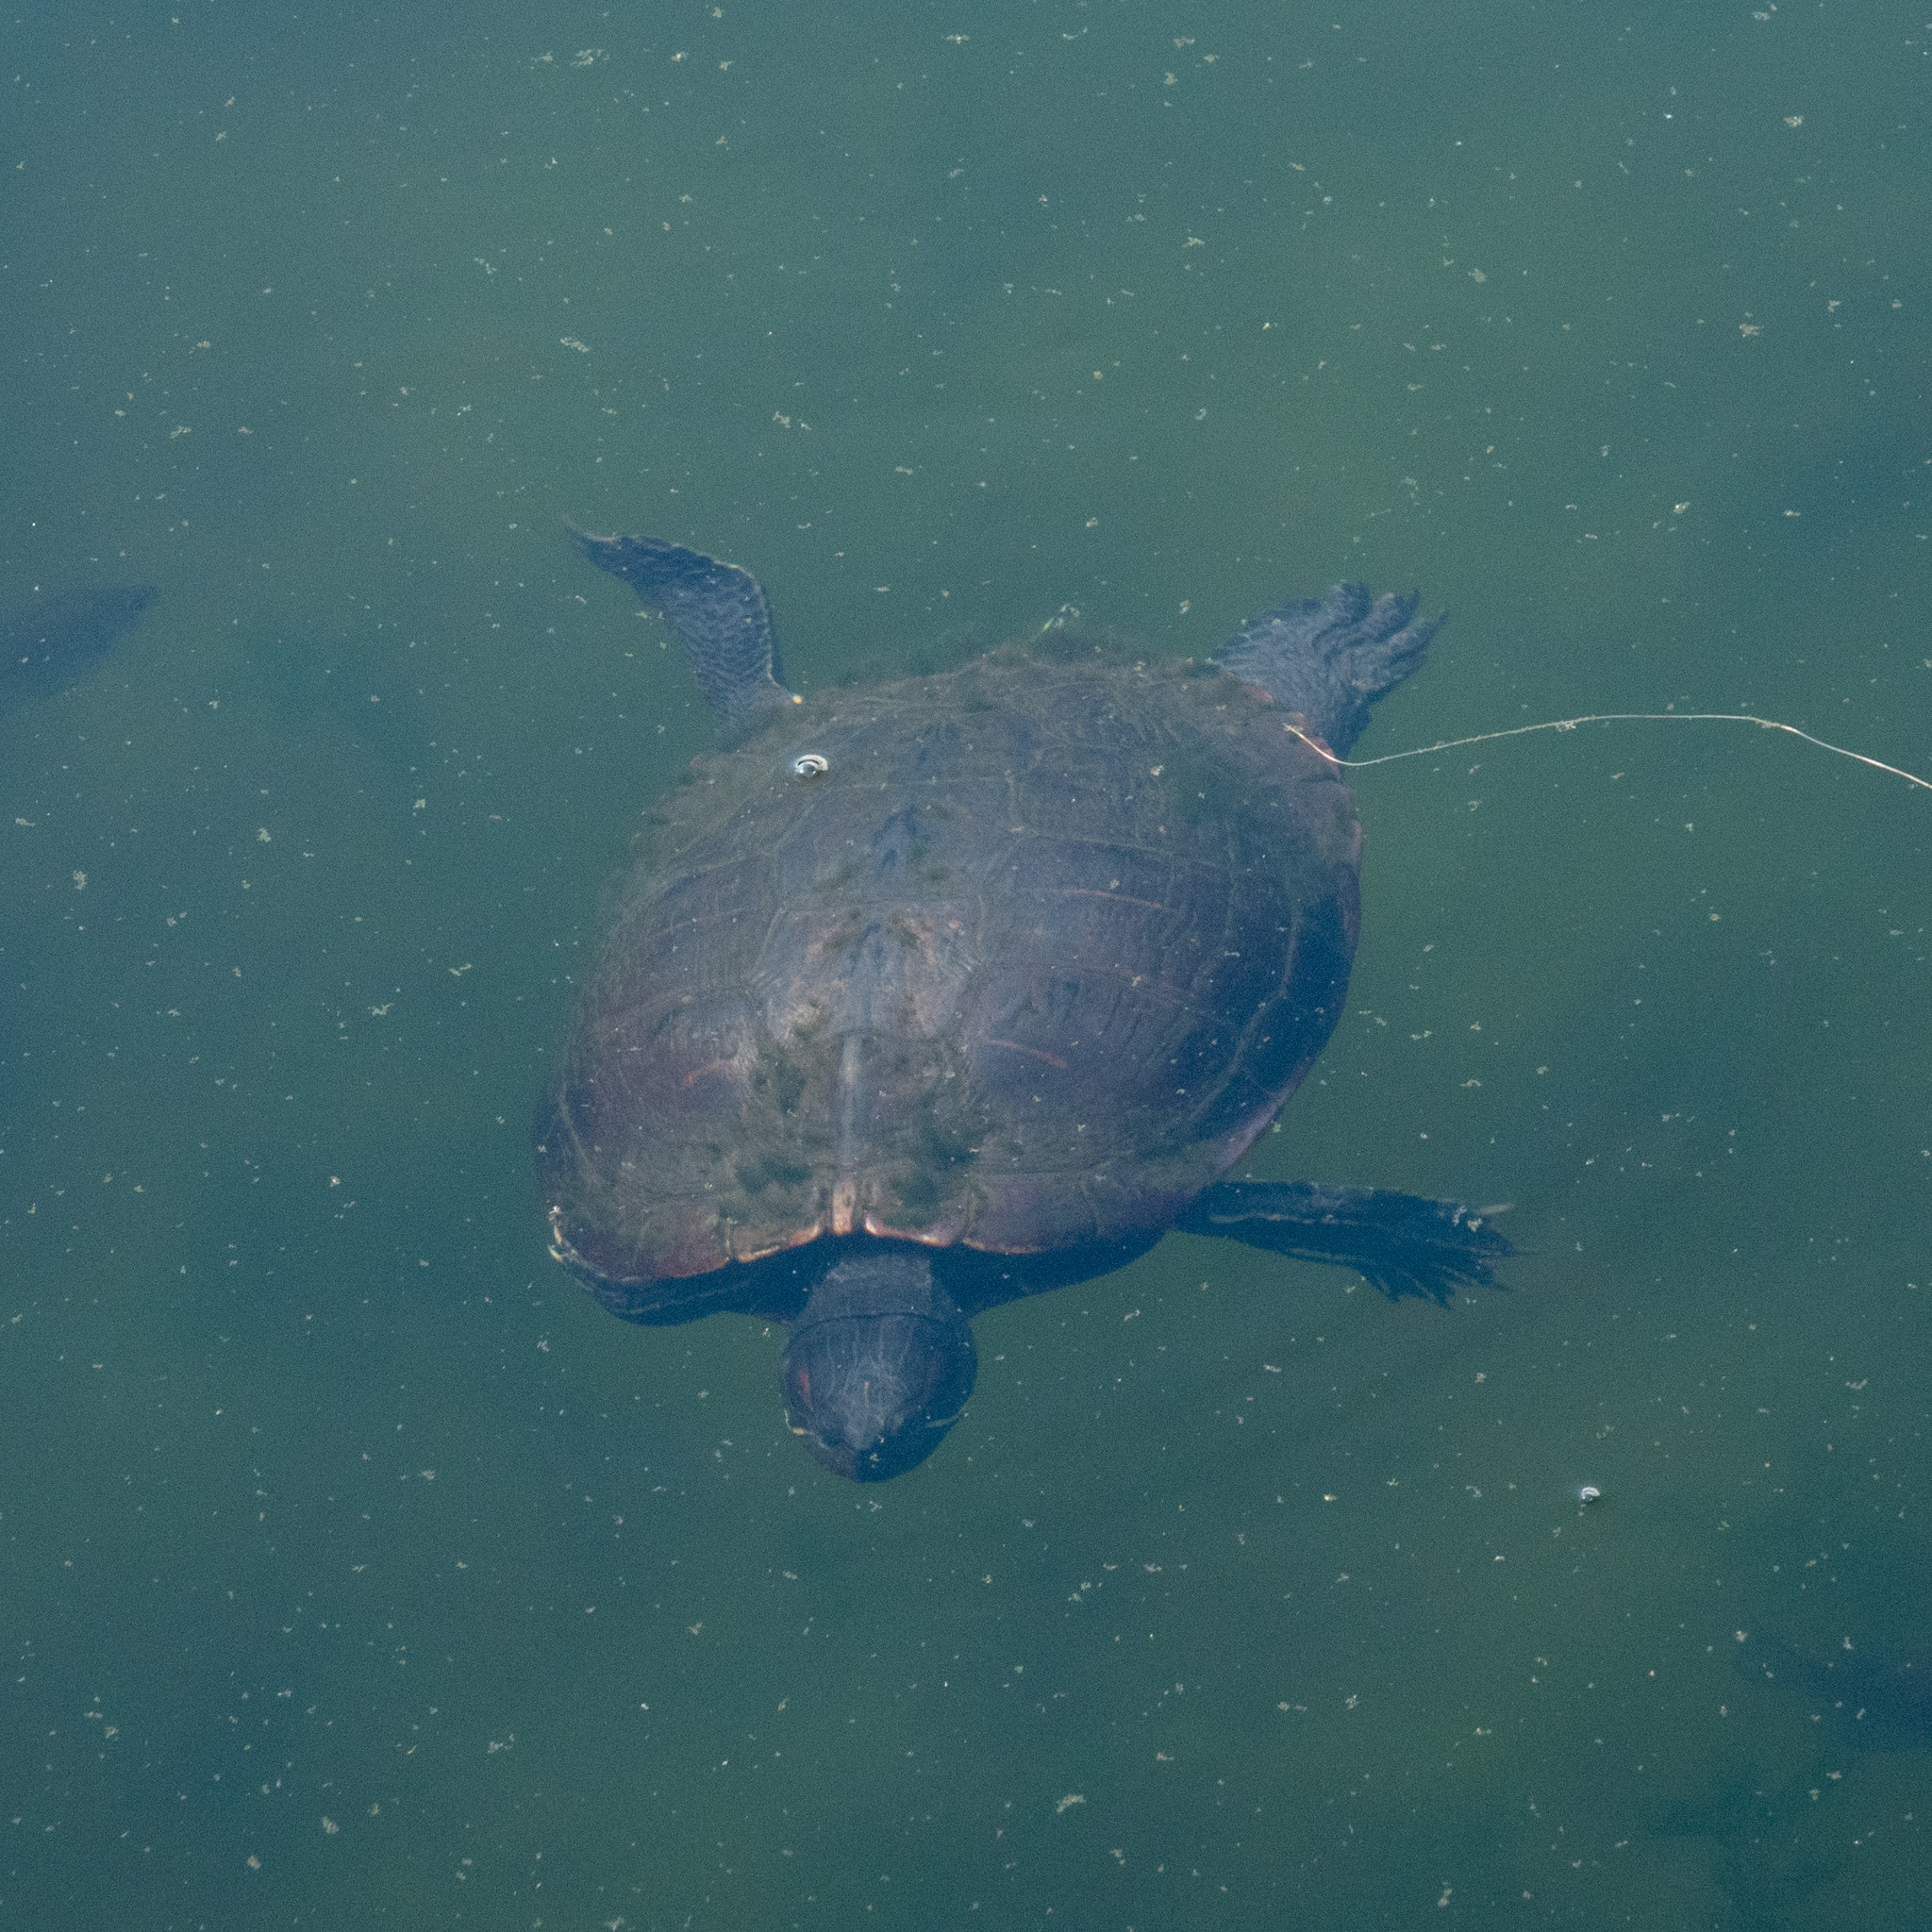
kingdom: Animalia
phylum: Chordata
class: Testudines
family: Emydidae
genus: Trachemys
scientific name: Trachemys scripta
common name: Slider
